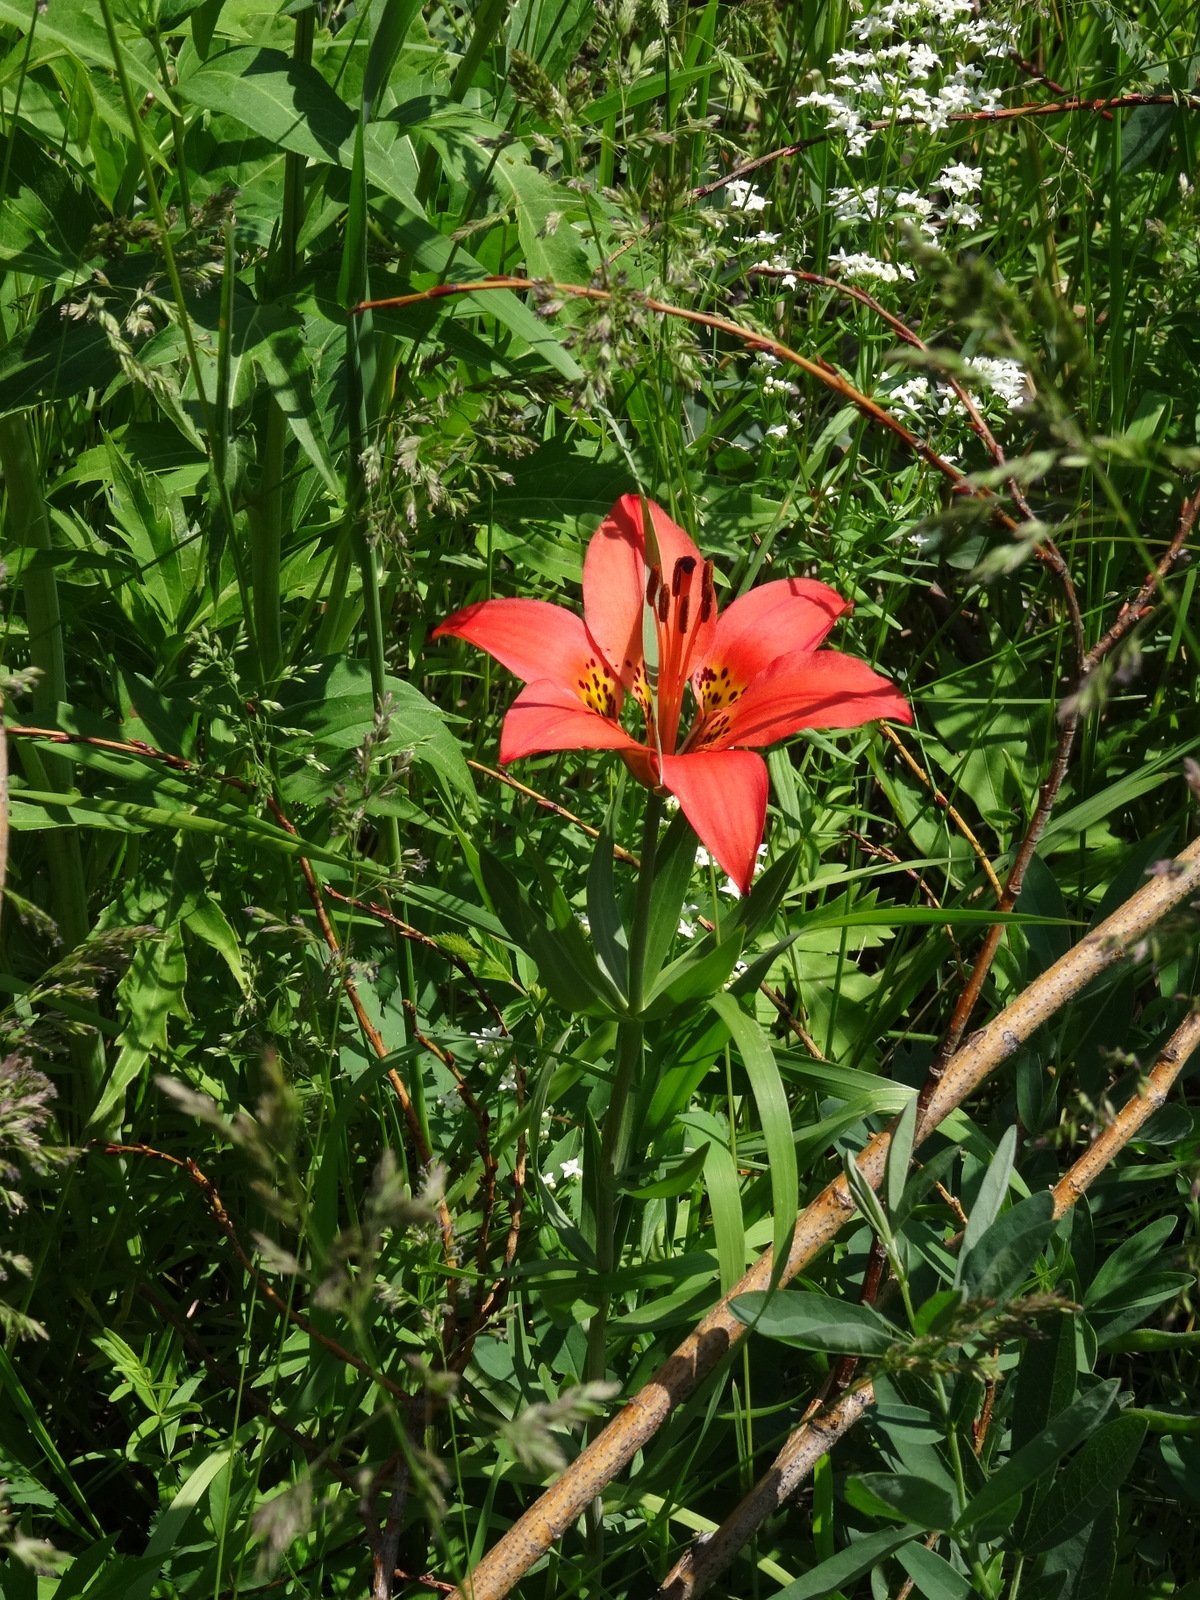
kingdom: Plantae
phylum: Tracheophyta
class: Liliopsida
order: Liliales
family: Liliaceae
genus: Lilium
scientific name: Lilium philadelphicum
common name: Red lily
